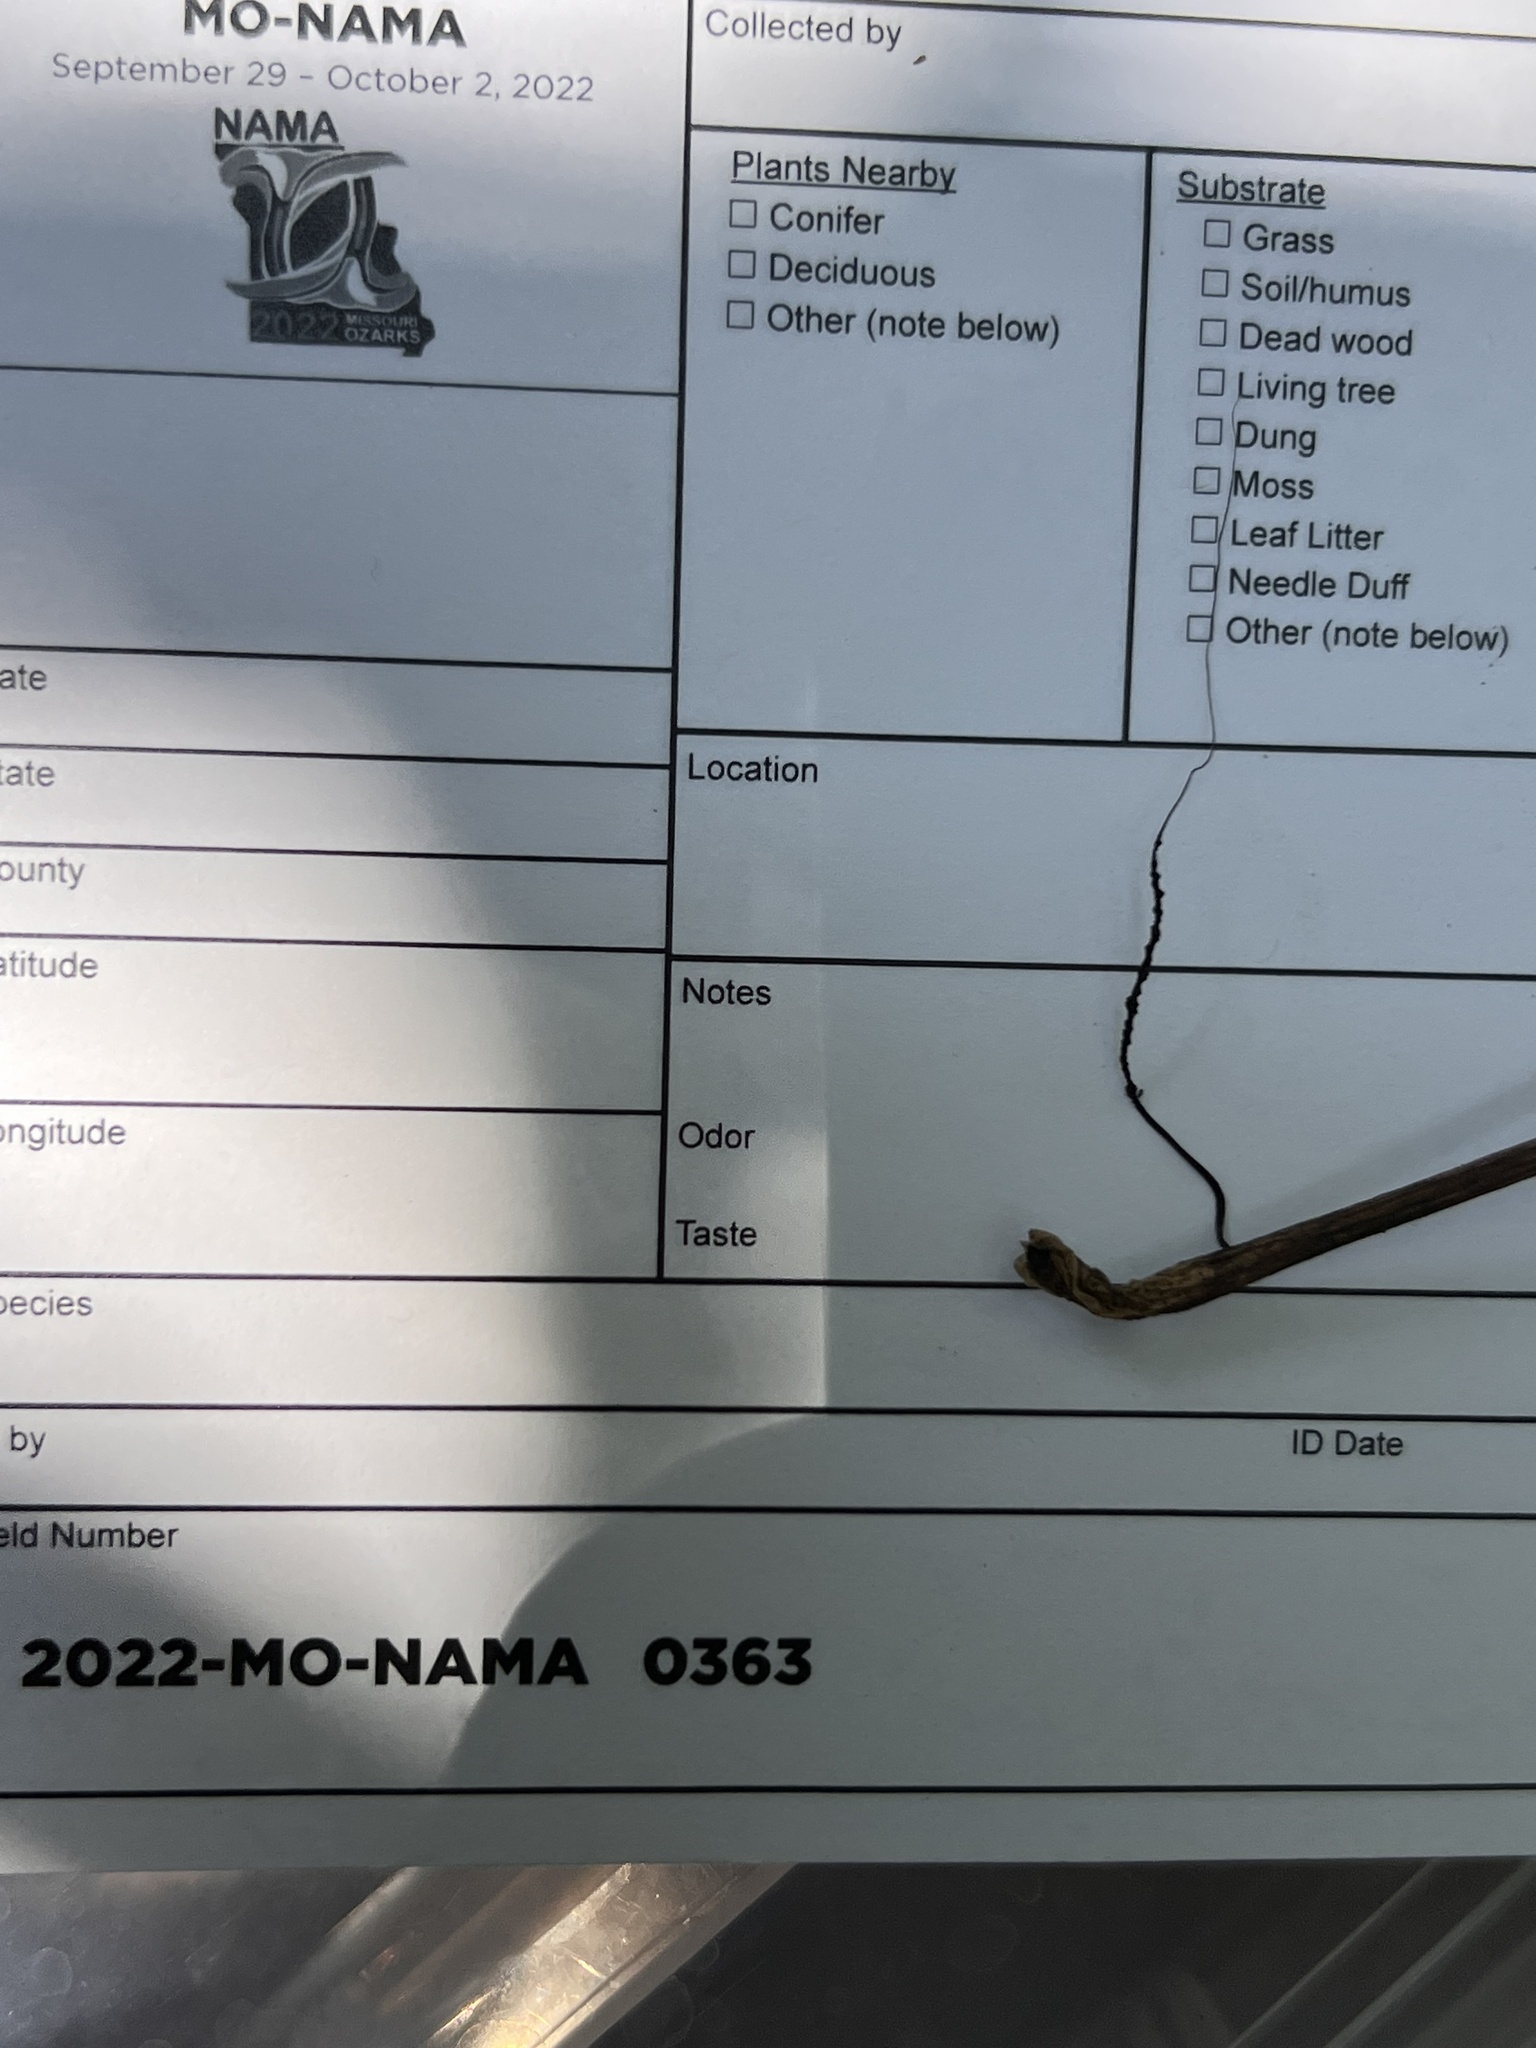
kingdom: Fungi
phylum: Ascomycota
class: Sordariomycetes
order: Xylariales
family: Xylariaceae
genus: Xylaria
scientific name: Xylaria
